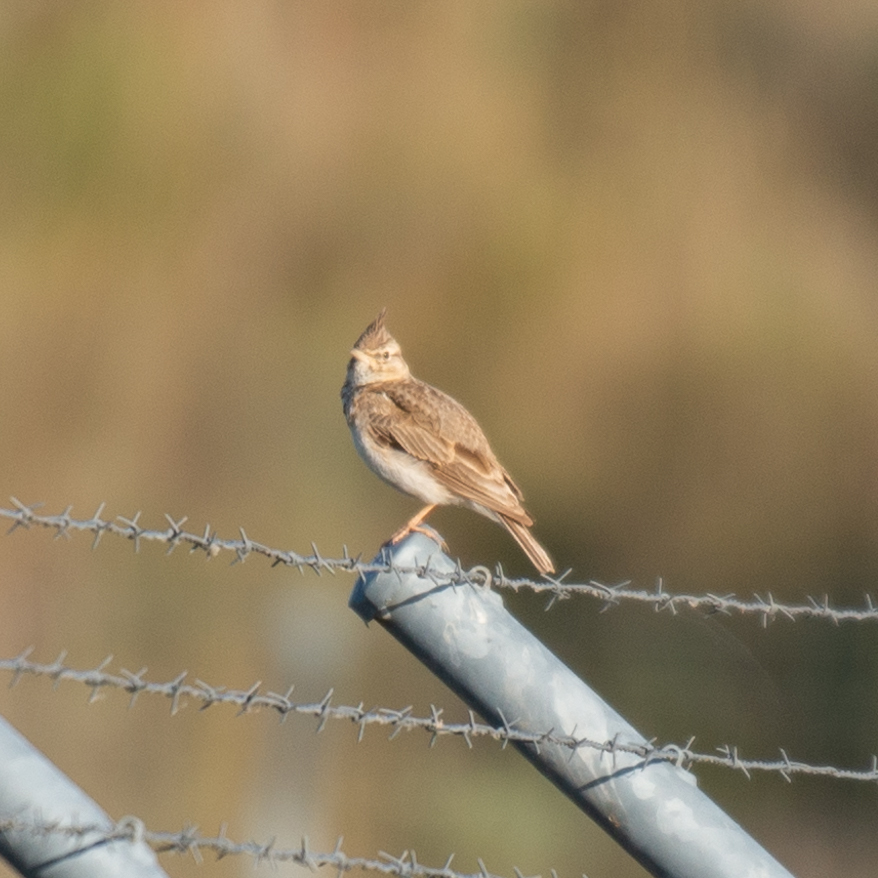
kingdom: Animalia
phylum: Chordata
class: Aves
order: Passeriformes
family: Alaudidae
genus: Galerida
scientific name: Galerida cristata
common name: Crested lark
